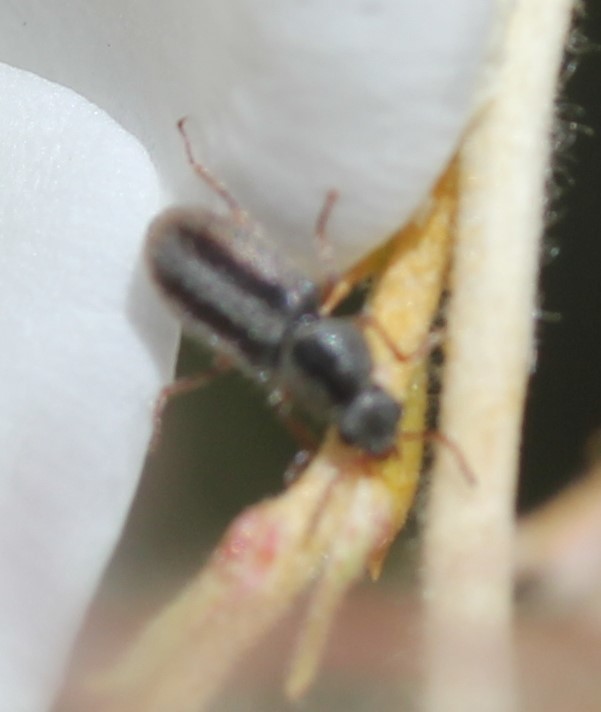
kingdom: Animalia
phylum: Arthropoda
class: Insecta
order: Coleoptera
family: Melyridae
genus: Trichochrous
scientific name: Trichochrous
